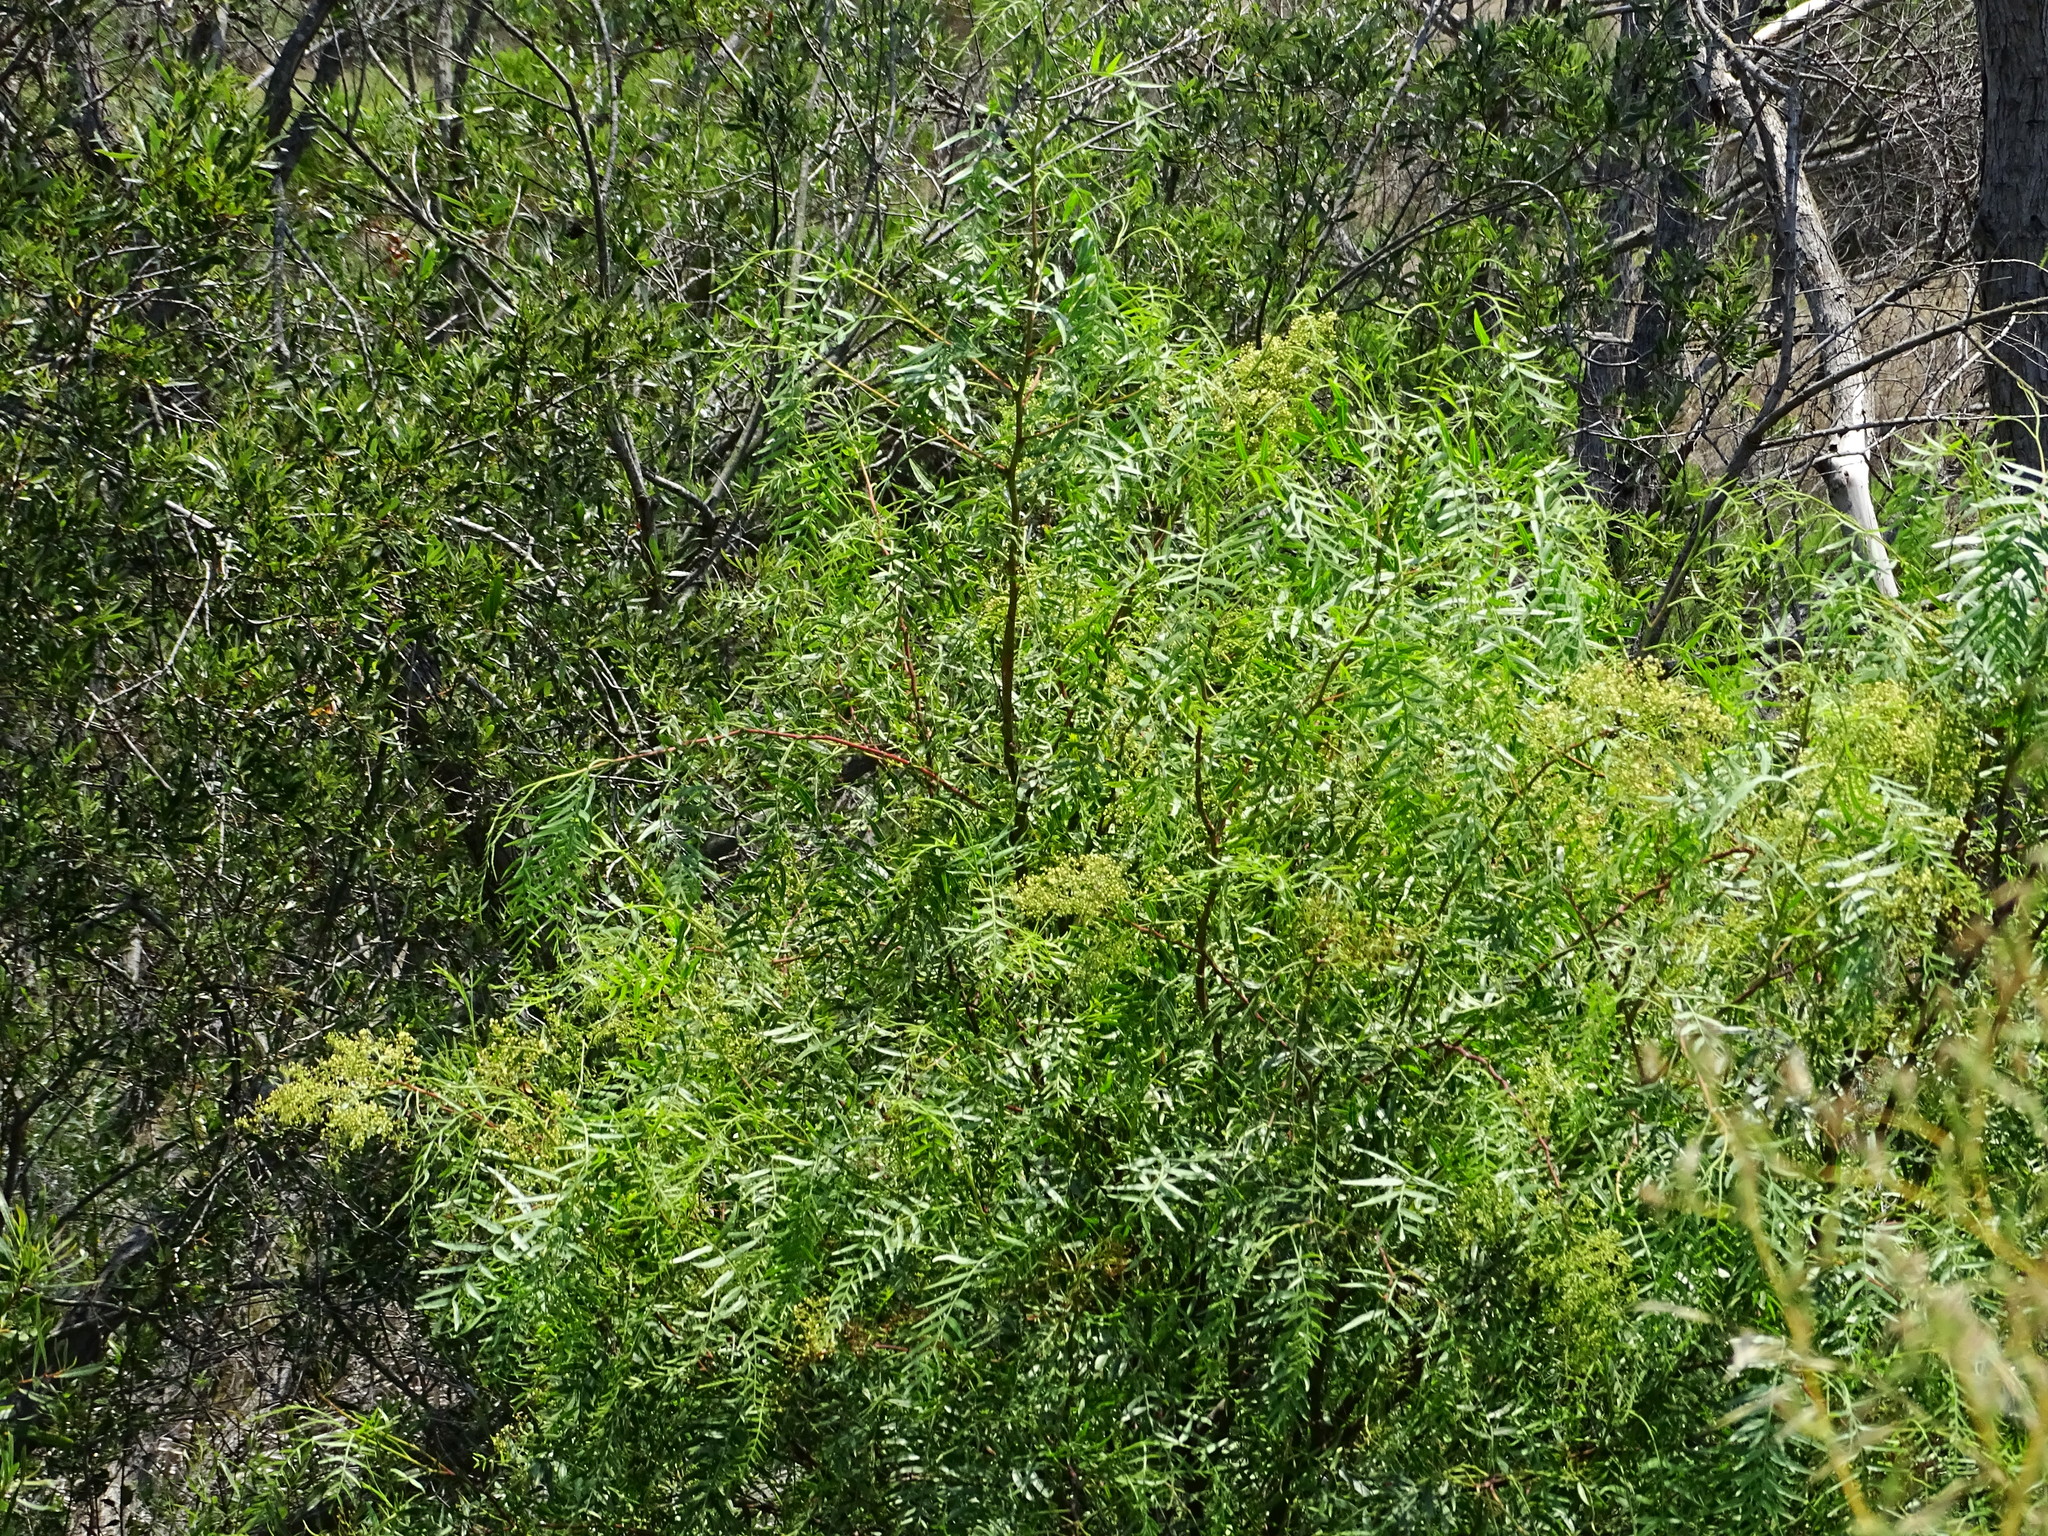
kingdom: Plantae
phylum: Tracheophyta
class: Magnoliopsida
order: Sapindales
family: Anacardiaceae
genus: Schinus
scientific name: Schinus molle
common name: Peruvian peppertree
